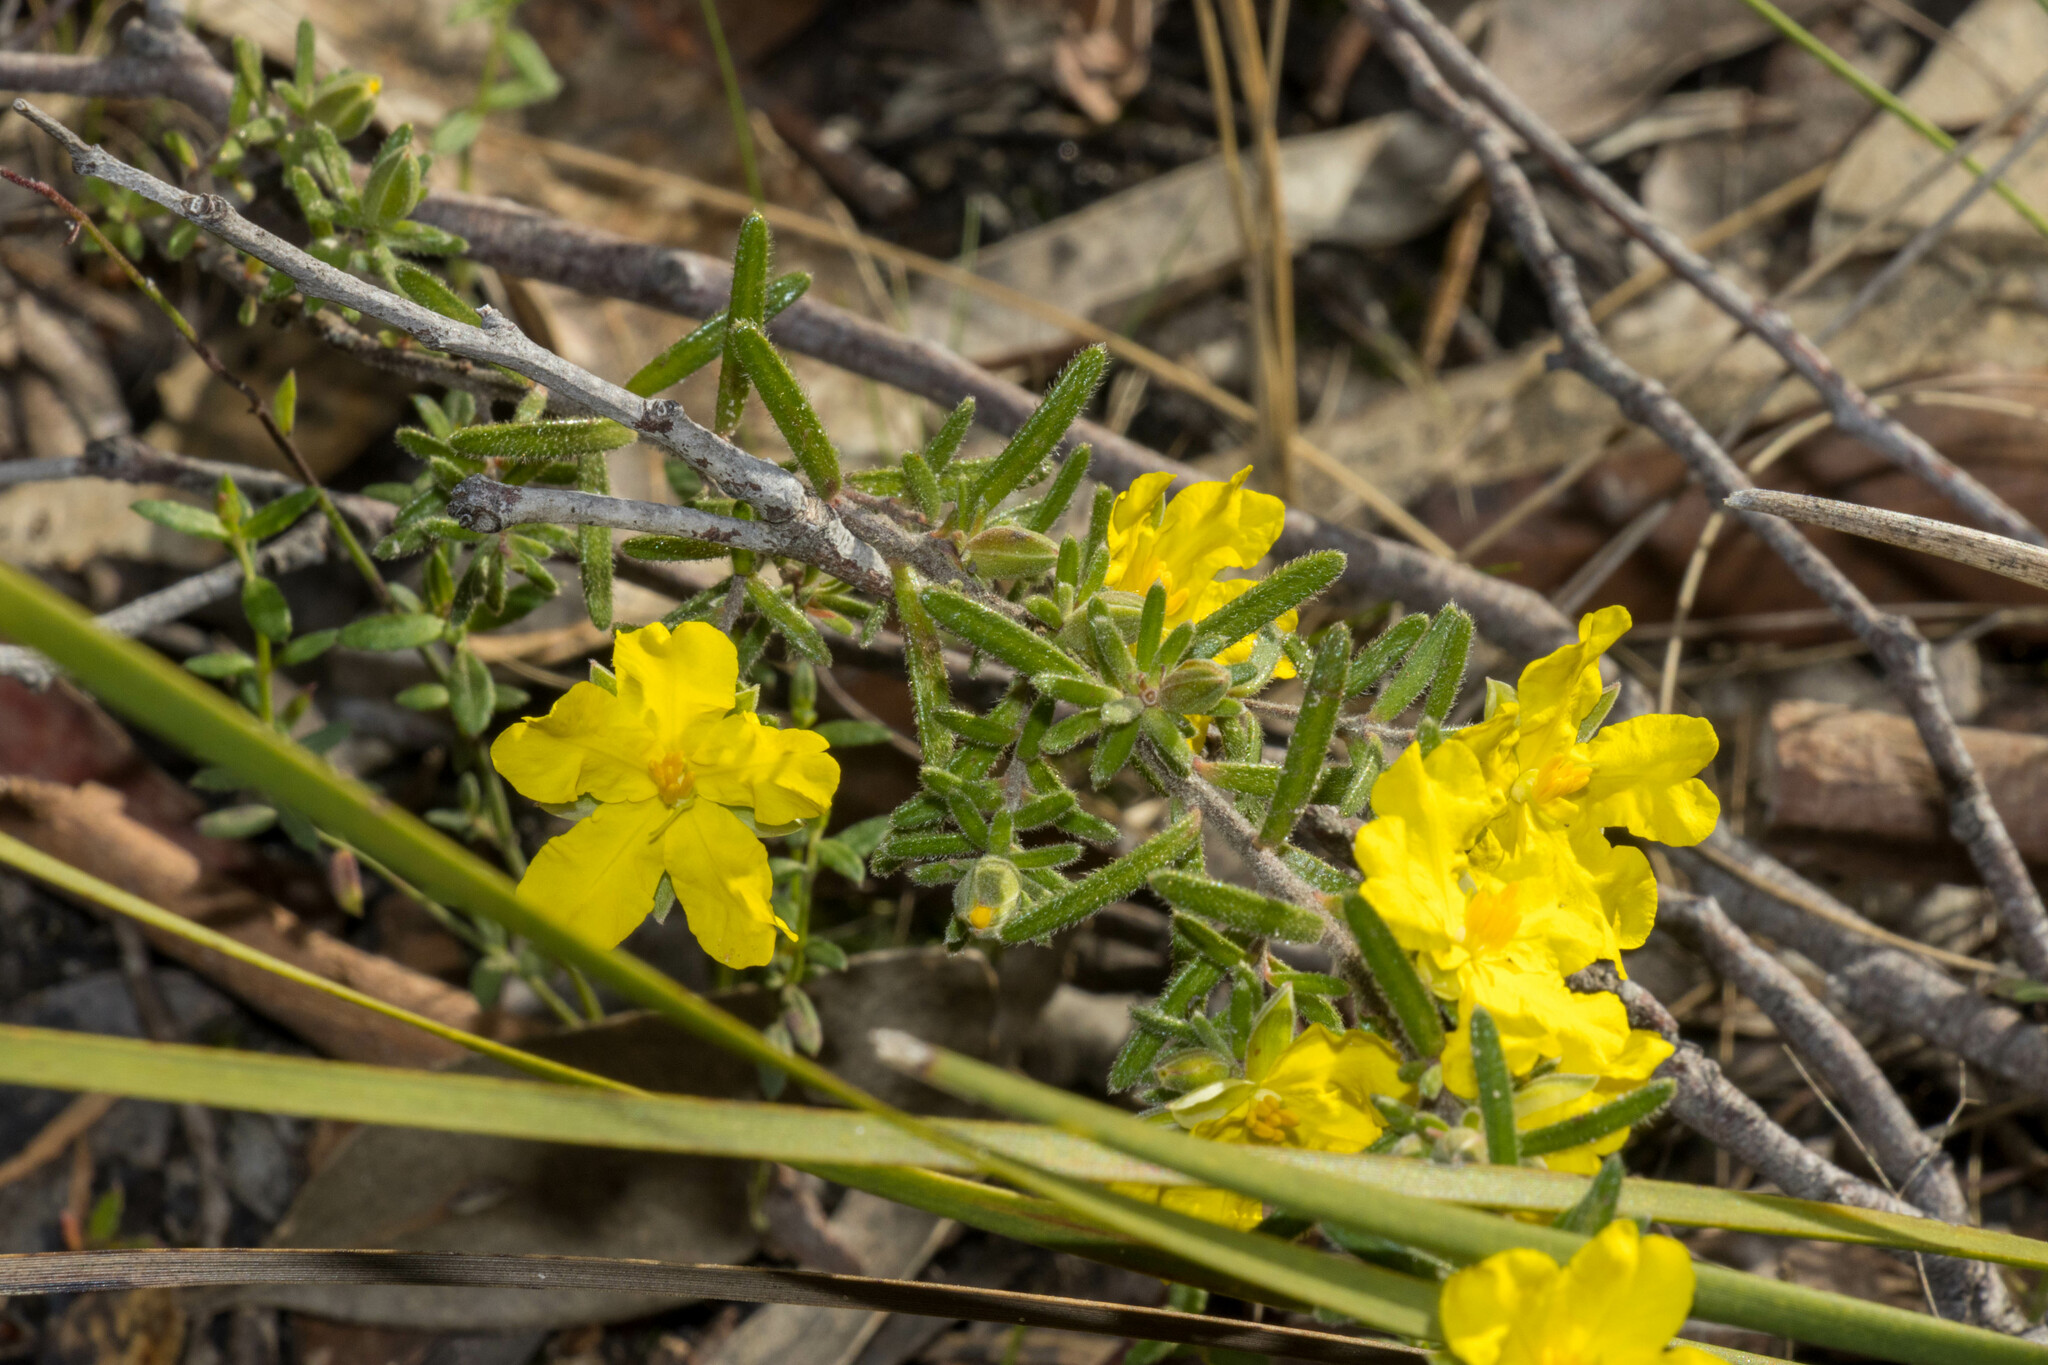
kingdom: Plantae
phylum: Tracheophyta
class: Magnoliopsida
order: Dilleniales
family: Dilleniaceae
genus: Hibbertia
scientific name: Hibbertia riparia
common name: Erect guinea-flower
